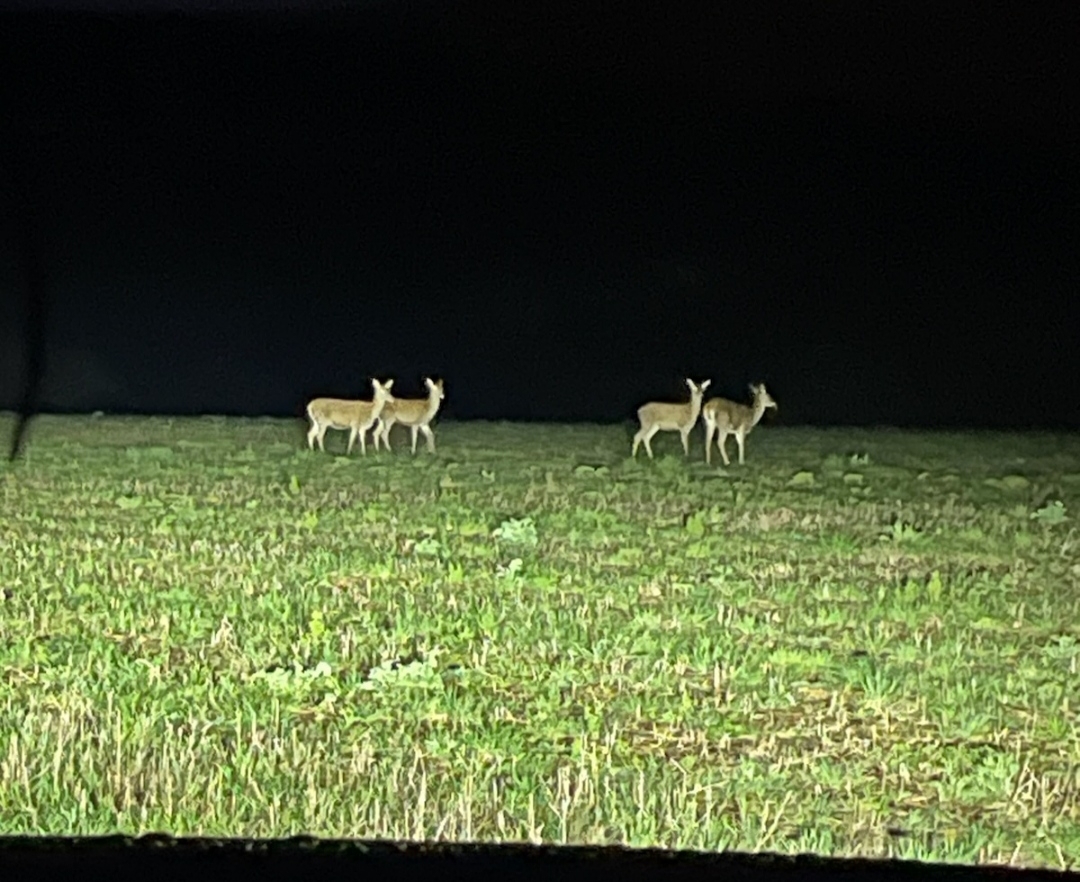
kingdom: Animalia
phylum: Chordata
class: Mammalia
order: Artiodactyla
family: Cervidae
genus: Cervus
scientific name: Cervus elaphus
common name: Red deer
